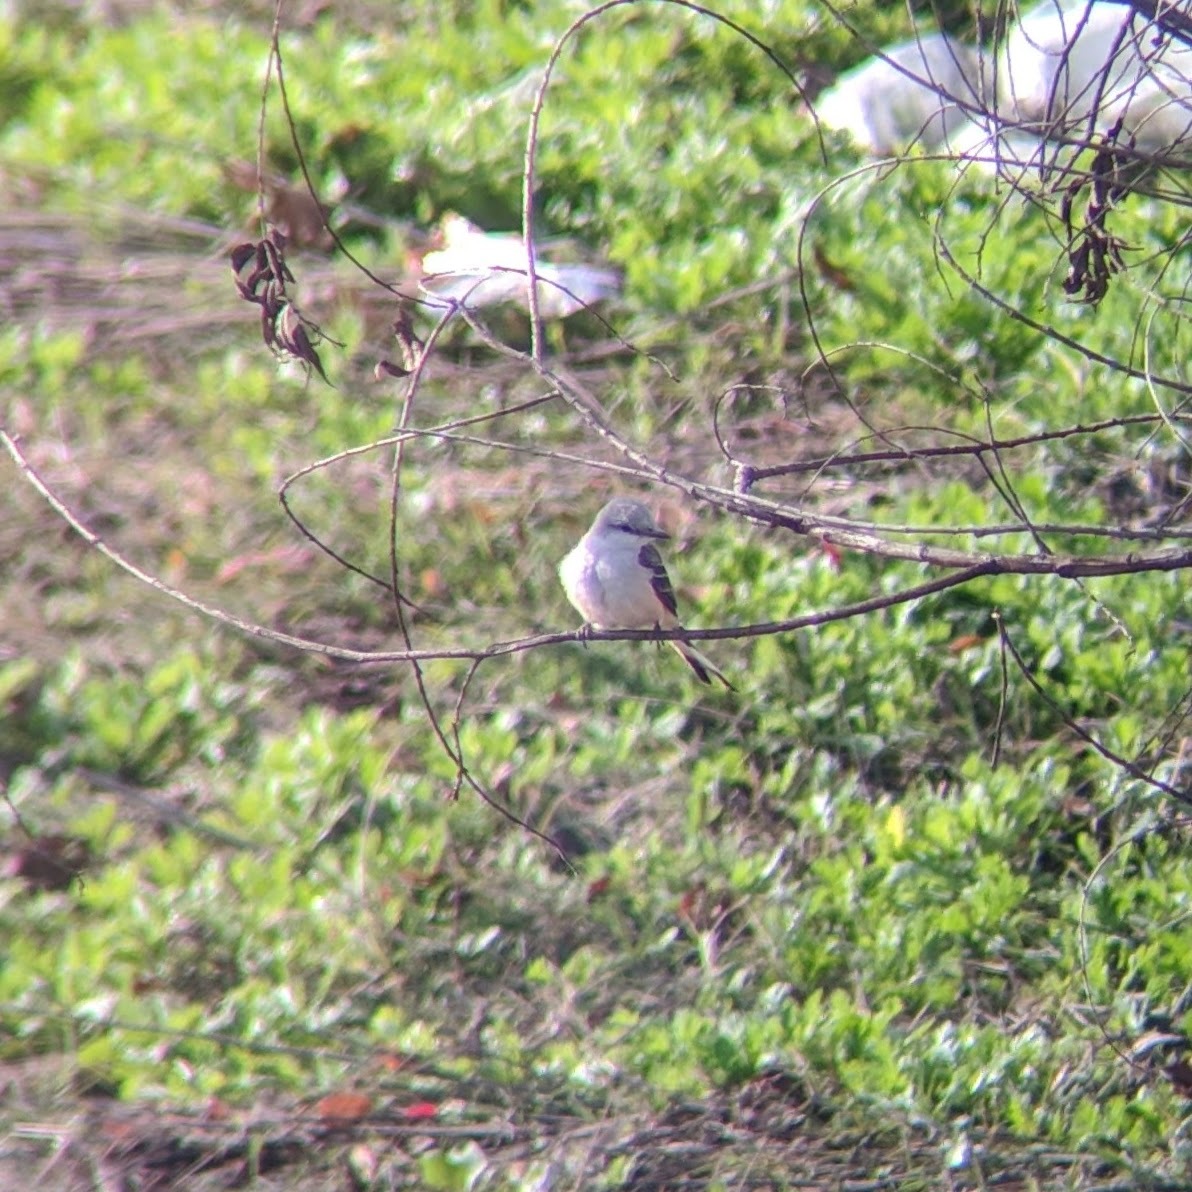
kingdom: Animalia
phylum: Chordata
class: Aves
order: Passeriformes
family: Tyrannidae
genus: Tyrannus
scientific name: Tyrannus forficatus
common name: Scissor-tailed flycatcher
